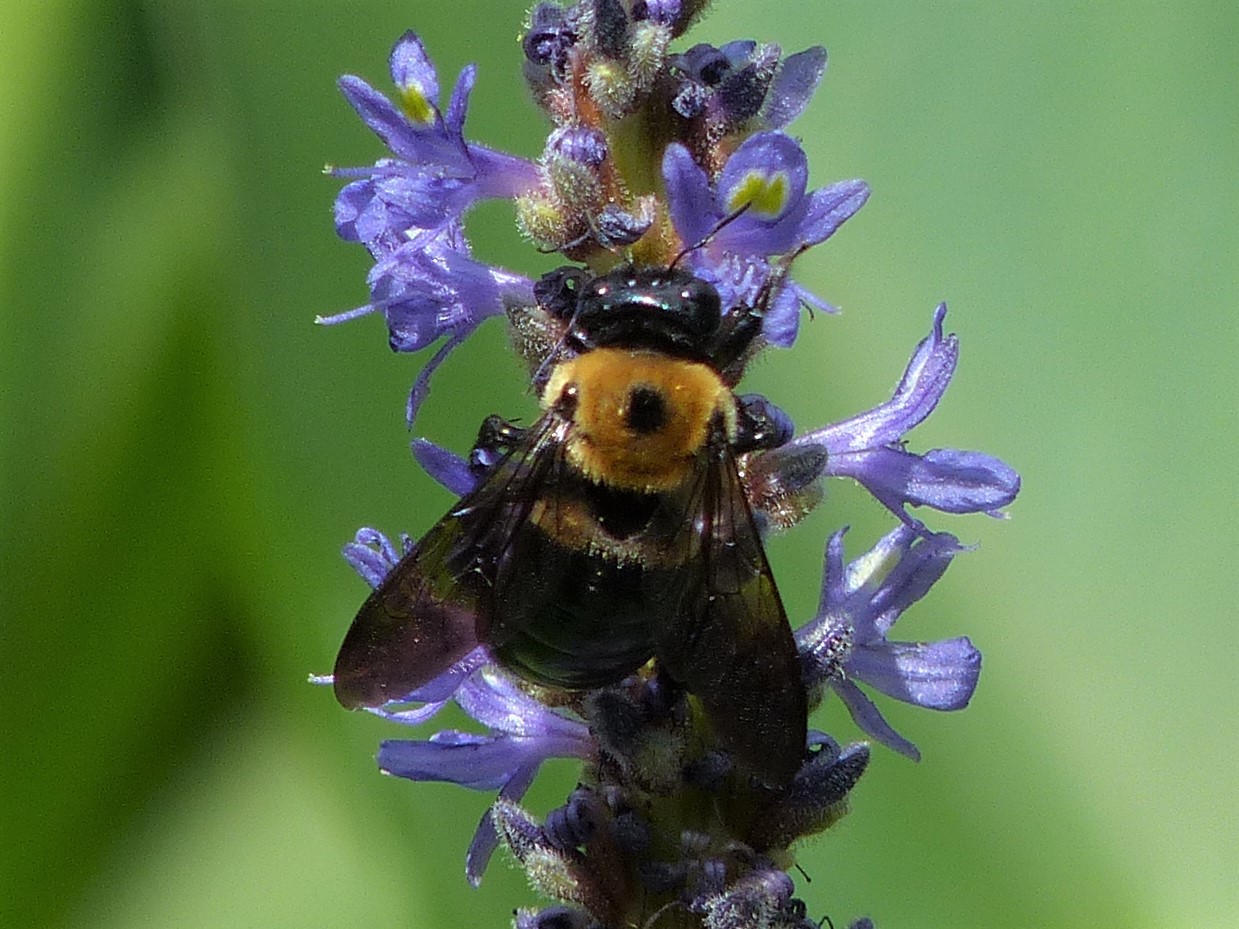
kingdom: Animalia
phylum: Arthropoda
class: Insecta
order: Hymenoptera
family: Apidae
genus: Xylocopa
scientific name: Xylocopa virginica
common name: Carpenter bee
